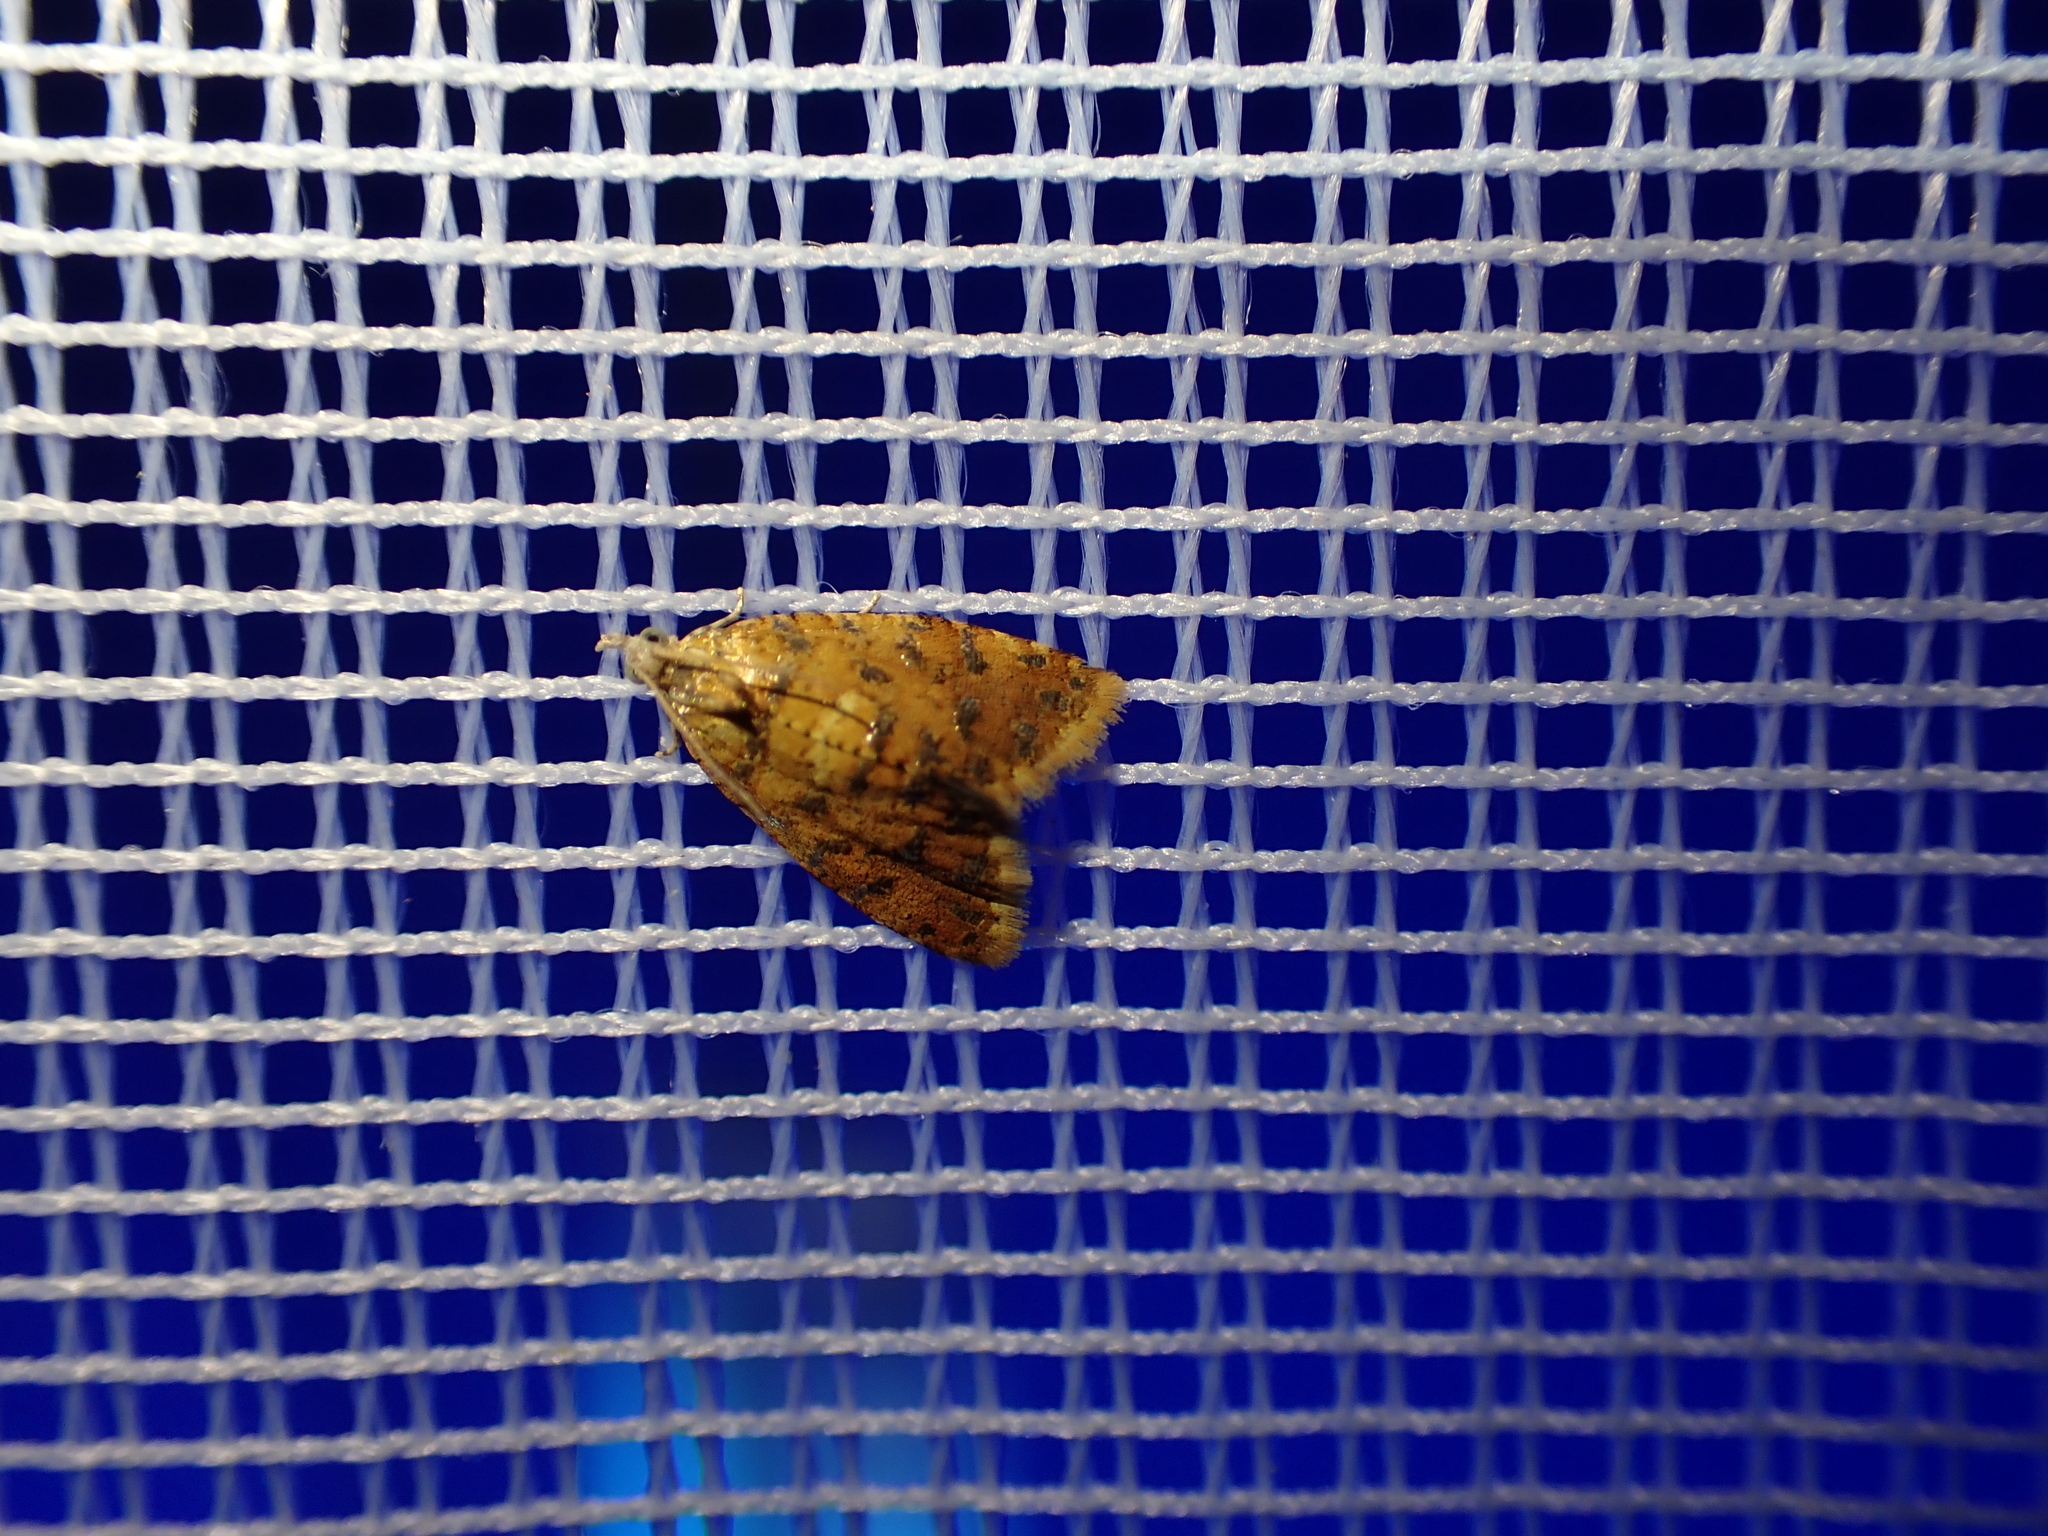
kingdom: Animalia
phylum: Arthropoda
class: Insecta
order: Lepidoptera
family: Tortricidae
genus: Pseudargyrotoza
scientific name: Pseudargyrotoza conwagana
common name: Yellow-spot twist
